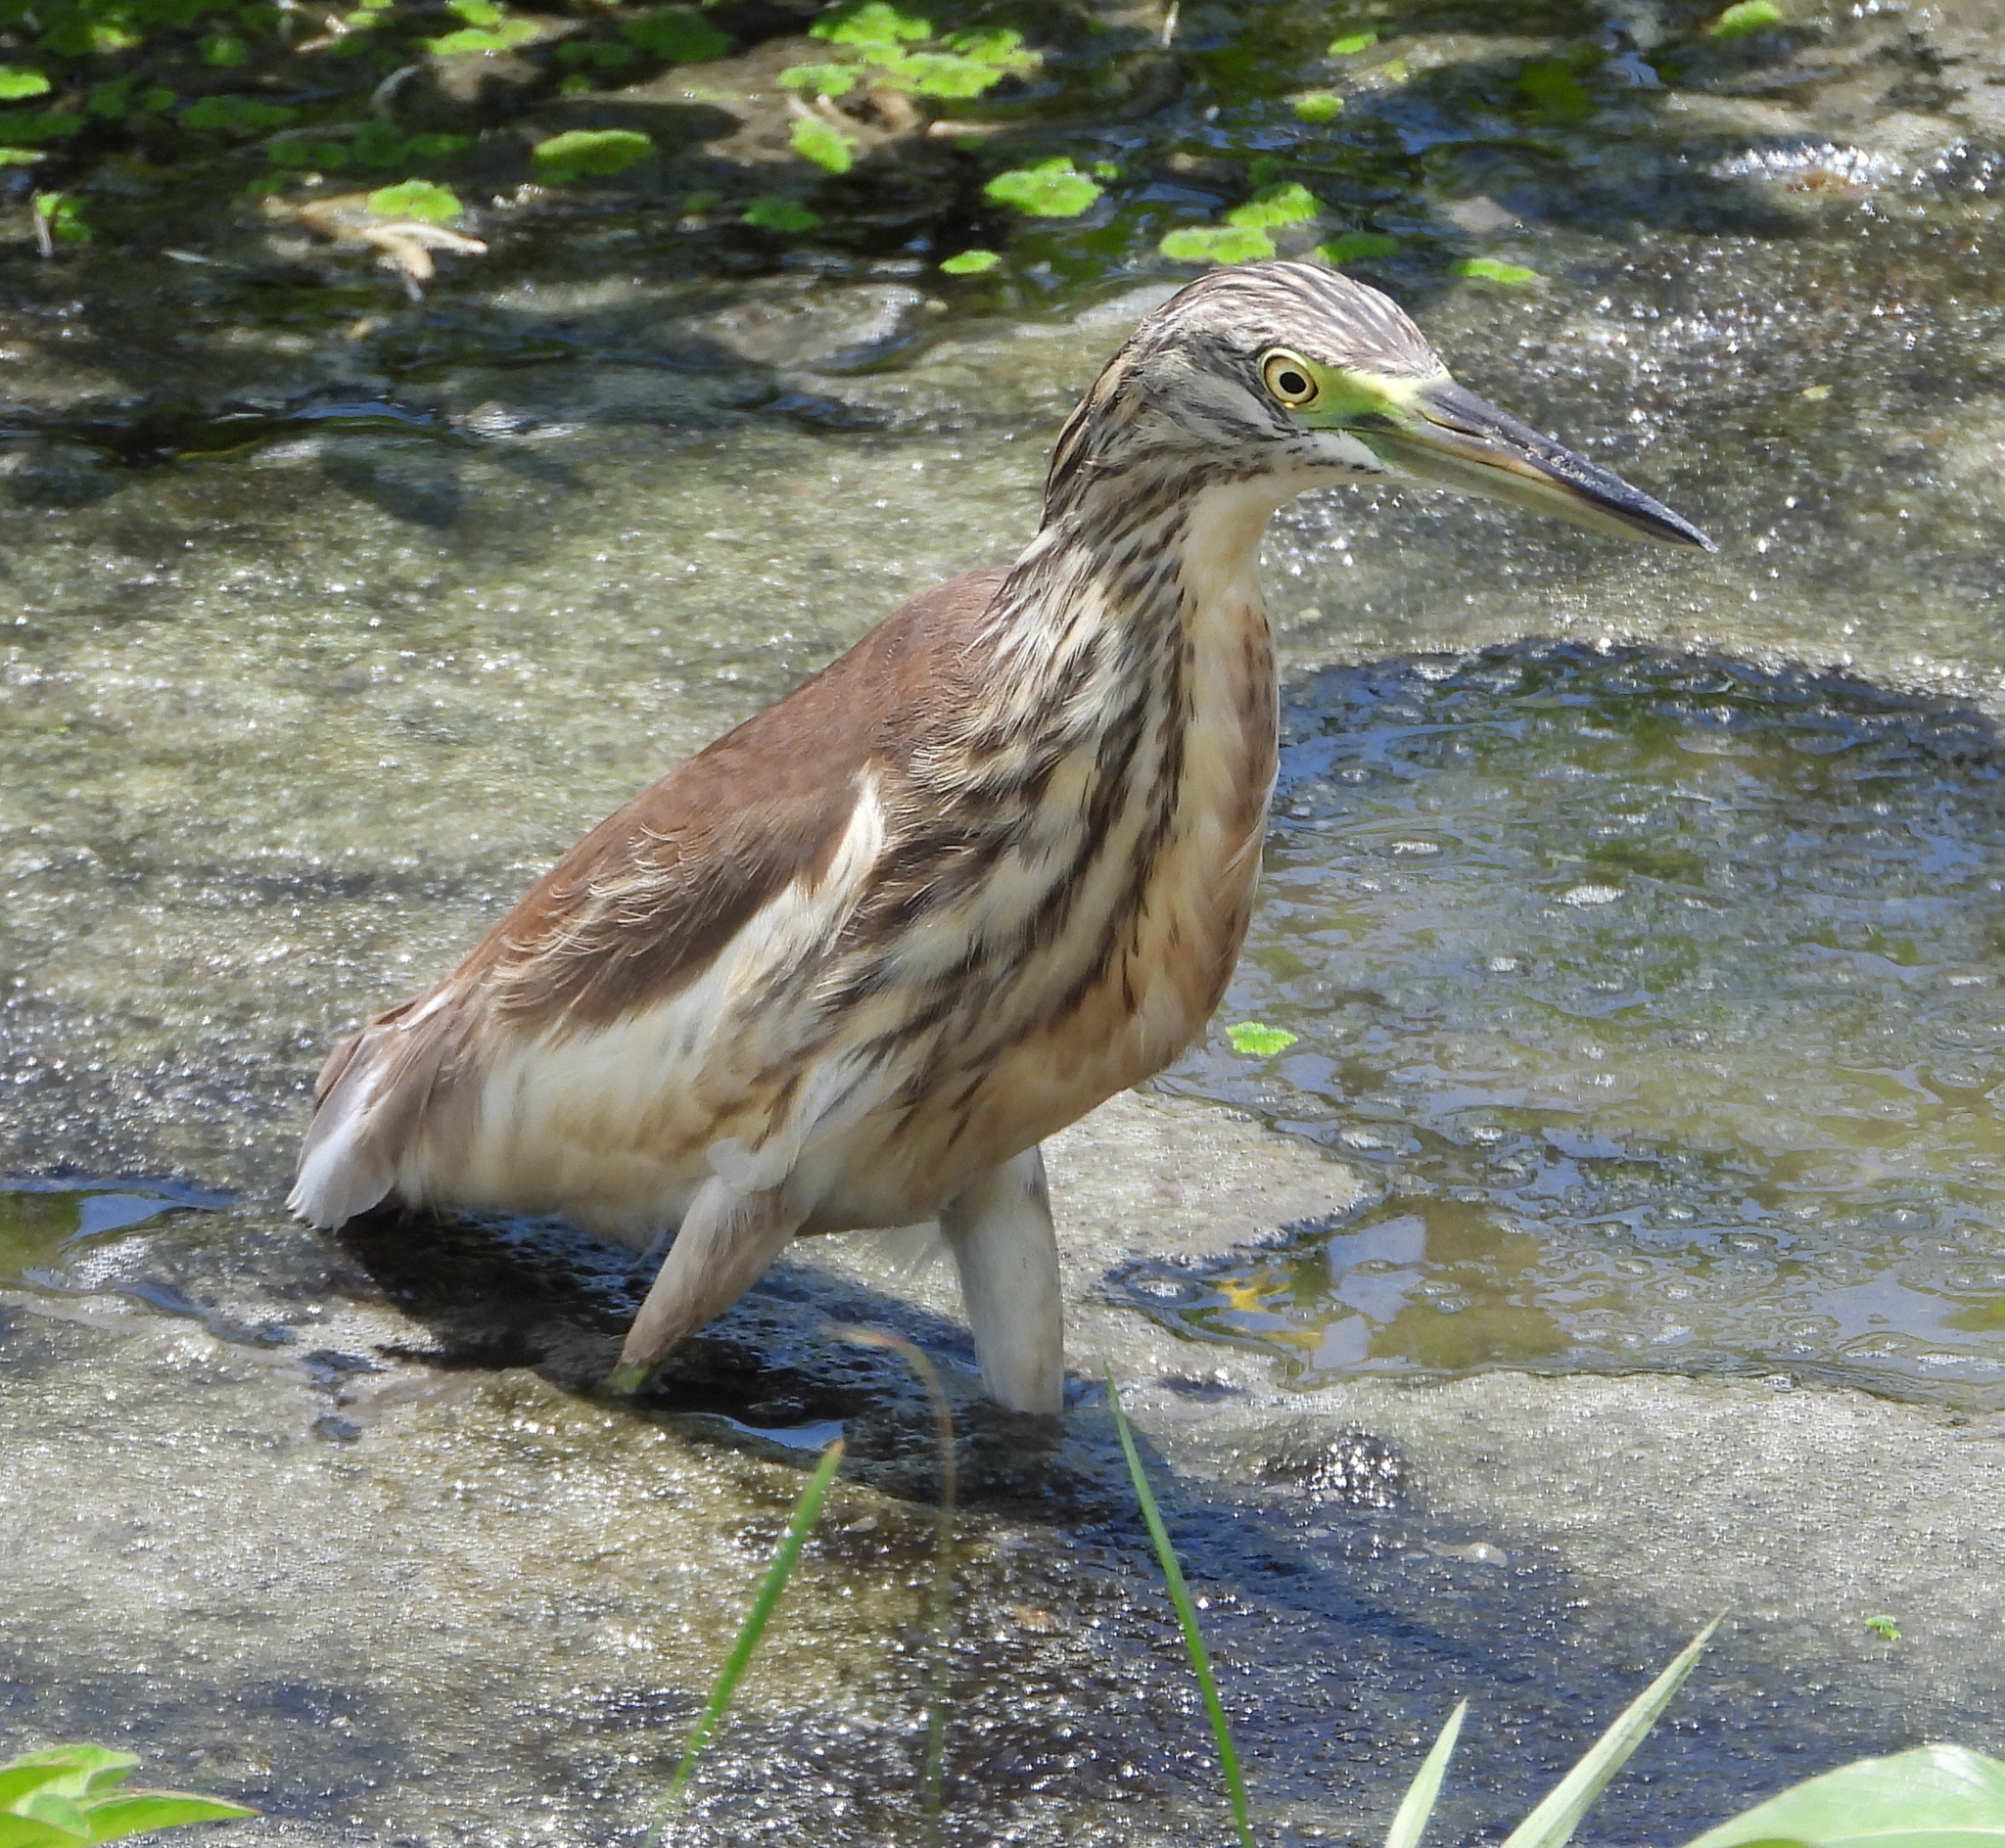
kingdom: Animalia
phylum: Chordata
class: Aves
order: Pelecaniformes
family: Ardeidae
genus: Ardeola
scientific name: Ardeola ralloides
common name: Squacco heron
